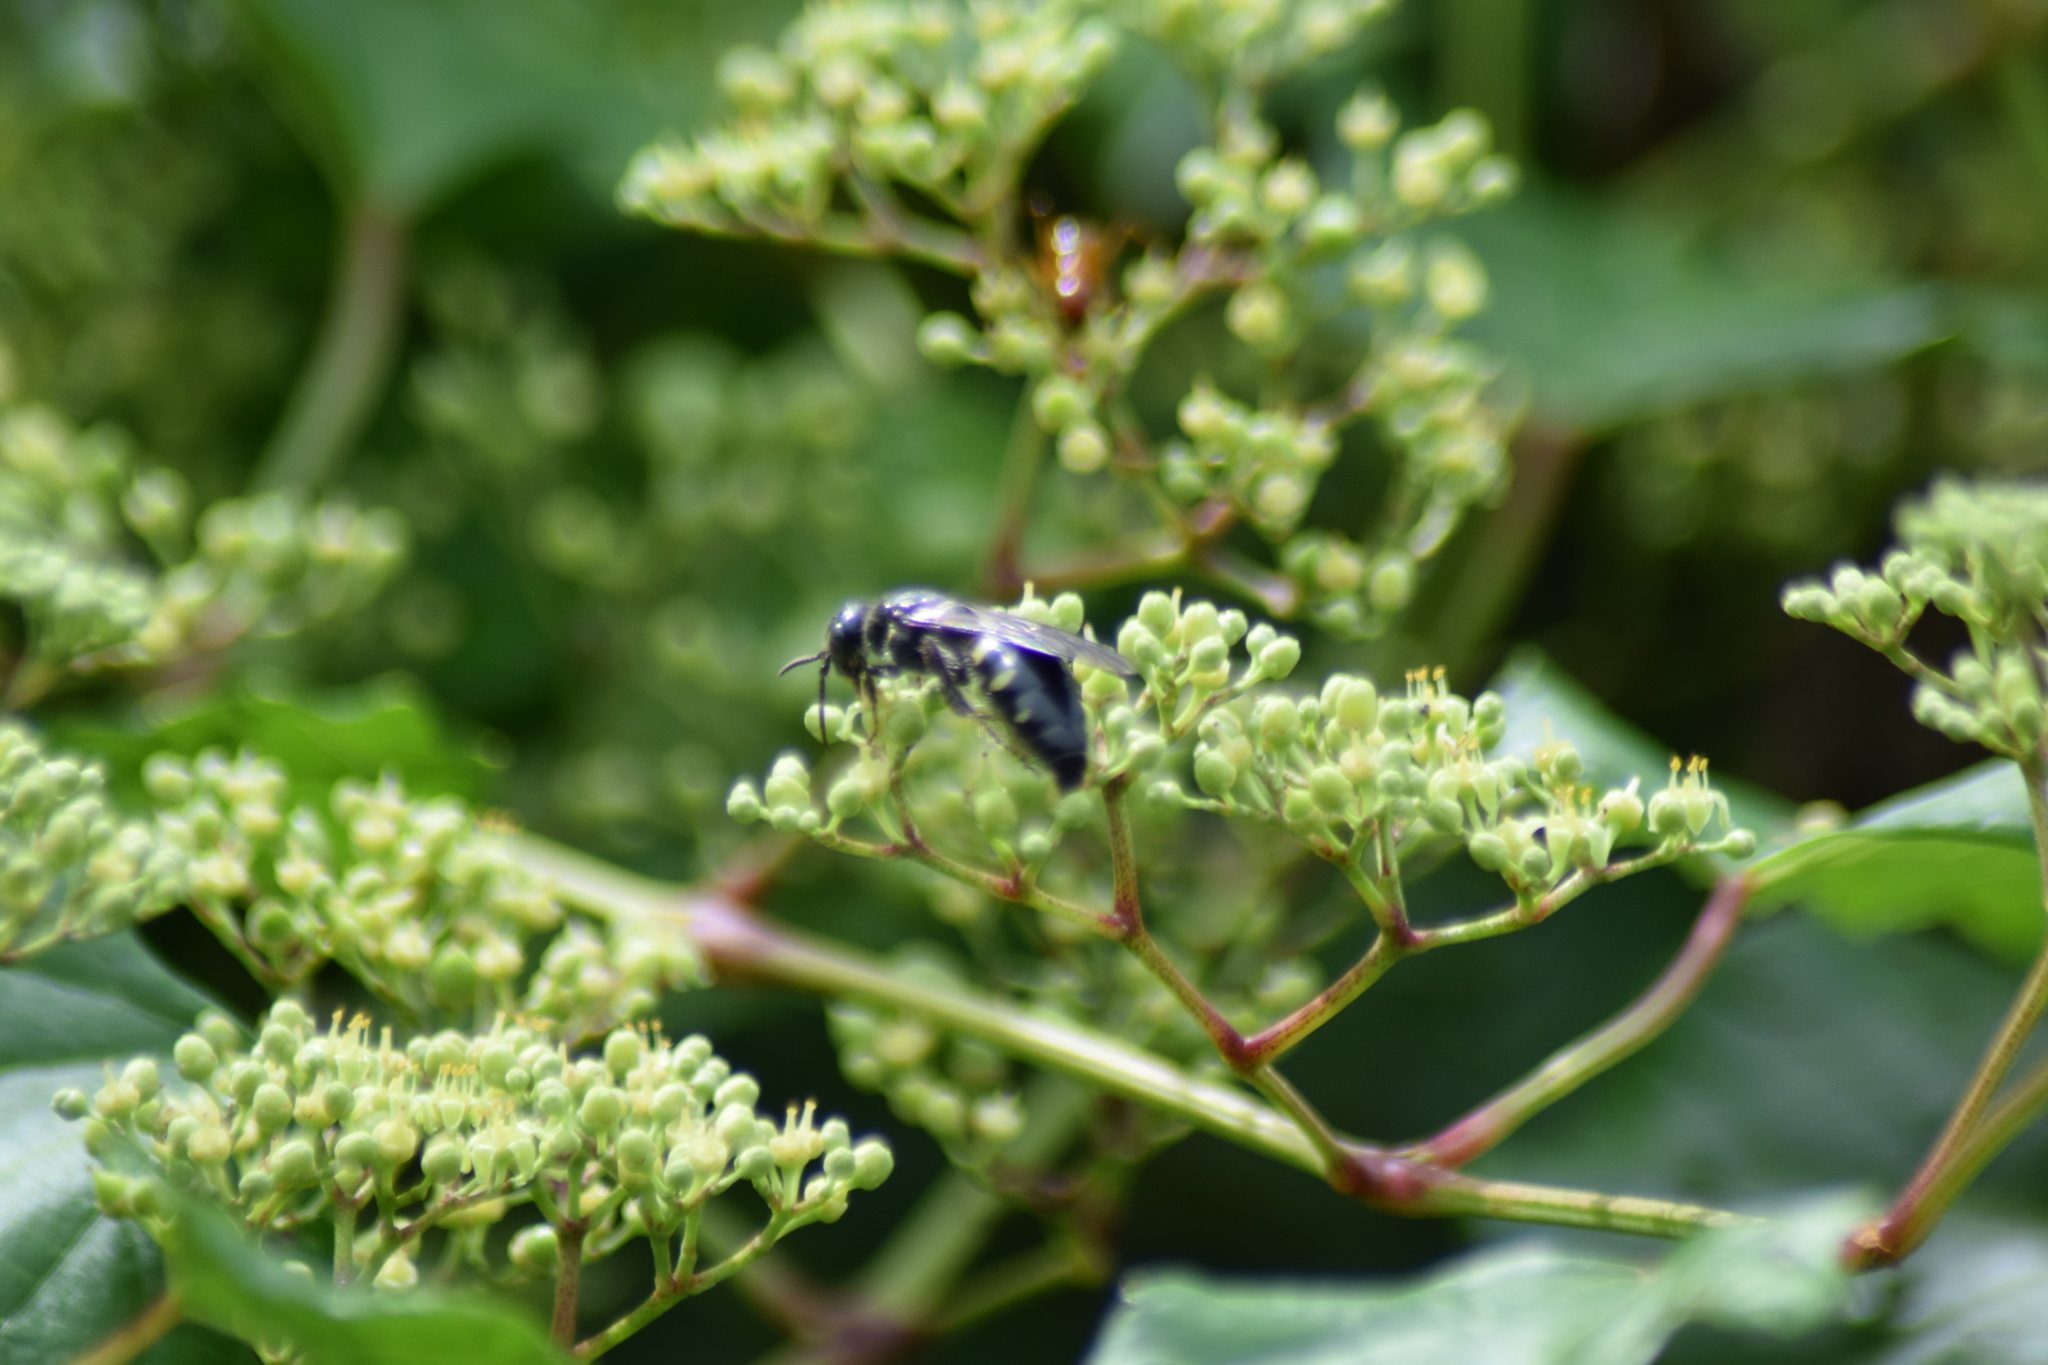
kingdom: Animalia
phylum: Arthropoda
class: Insecta
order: Hymenoptera
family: Tiphiidae
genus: Myzinum
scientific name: Myzinum obscurum
